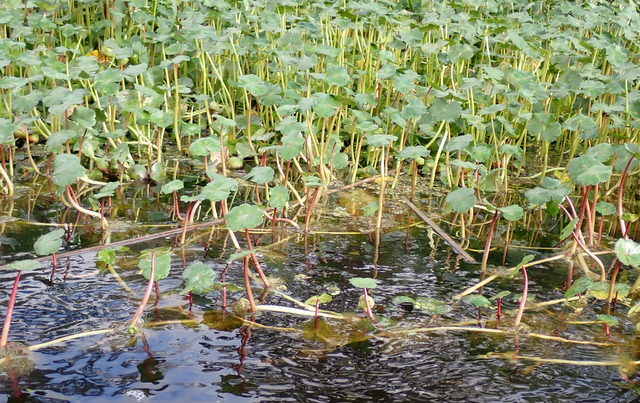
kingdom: Plantae
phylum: Tracheophyta
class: Magnoliopsida
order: Apiales
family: Araliaceae
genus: Hydrocotyle
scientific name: Hydrocotyle ranunculoides
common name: Floating pennywort
